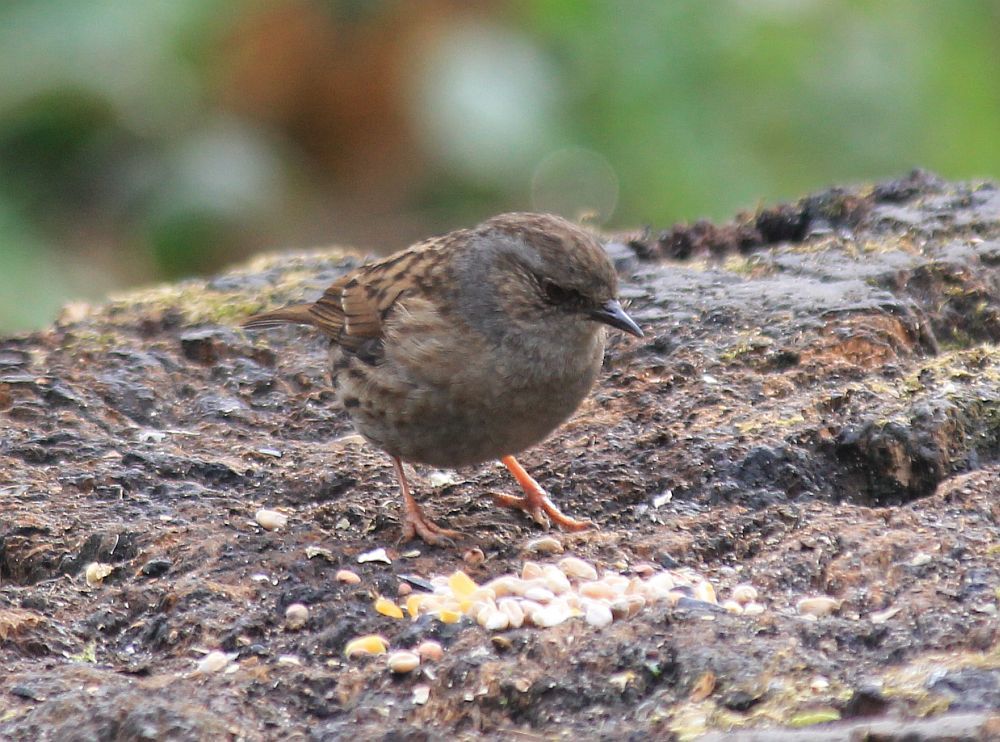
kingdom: Animalia
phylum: Chordata
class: Aves
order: Passeriformes
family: Prunellidae
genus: Prunella
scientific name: Prunella modularis
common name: Dunnock
